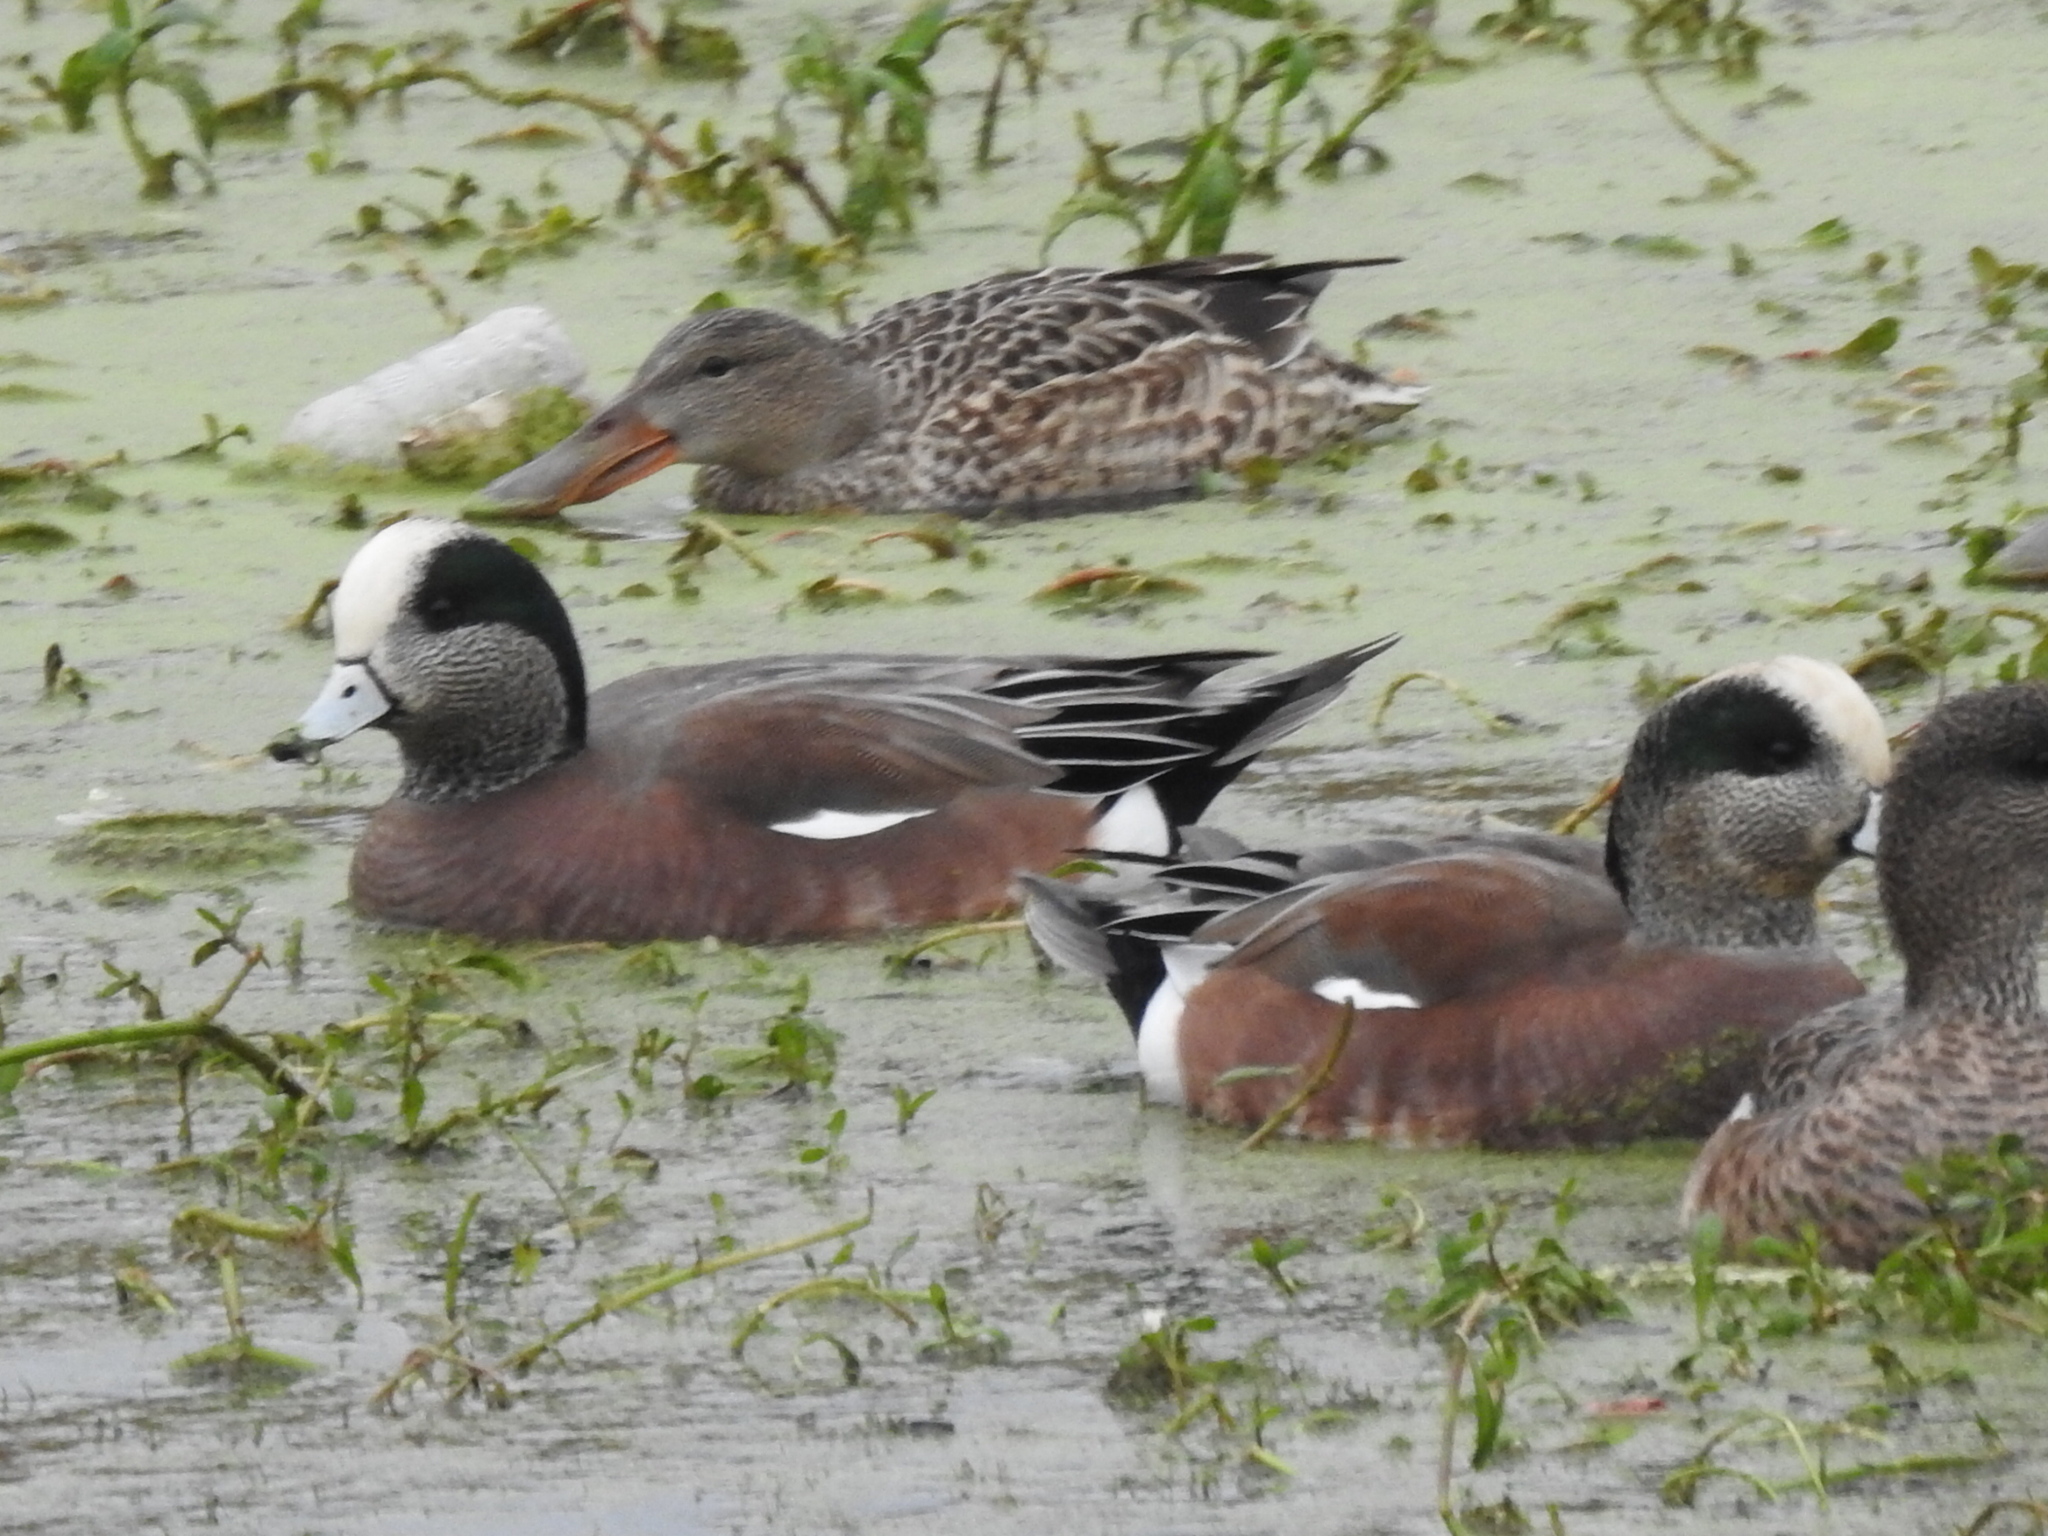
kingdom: Animalia
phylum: Chordata
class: Aves
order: Anseriformes
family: Anatidae
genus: Mareca
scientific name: Mareca americana
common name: American wigeon
